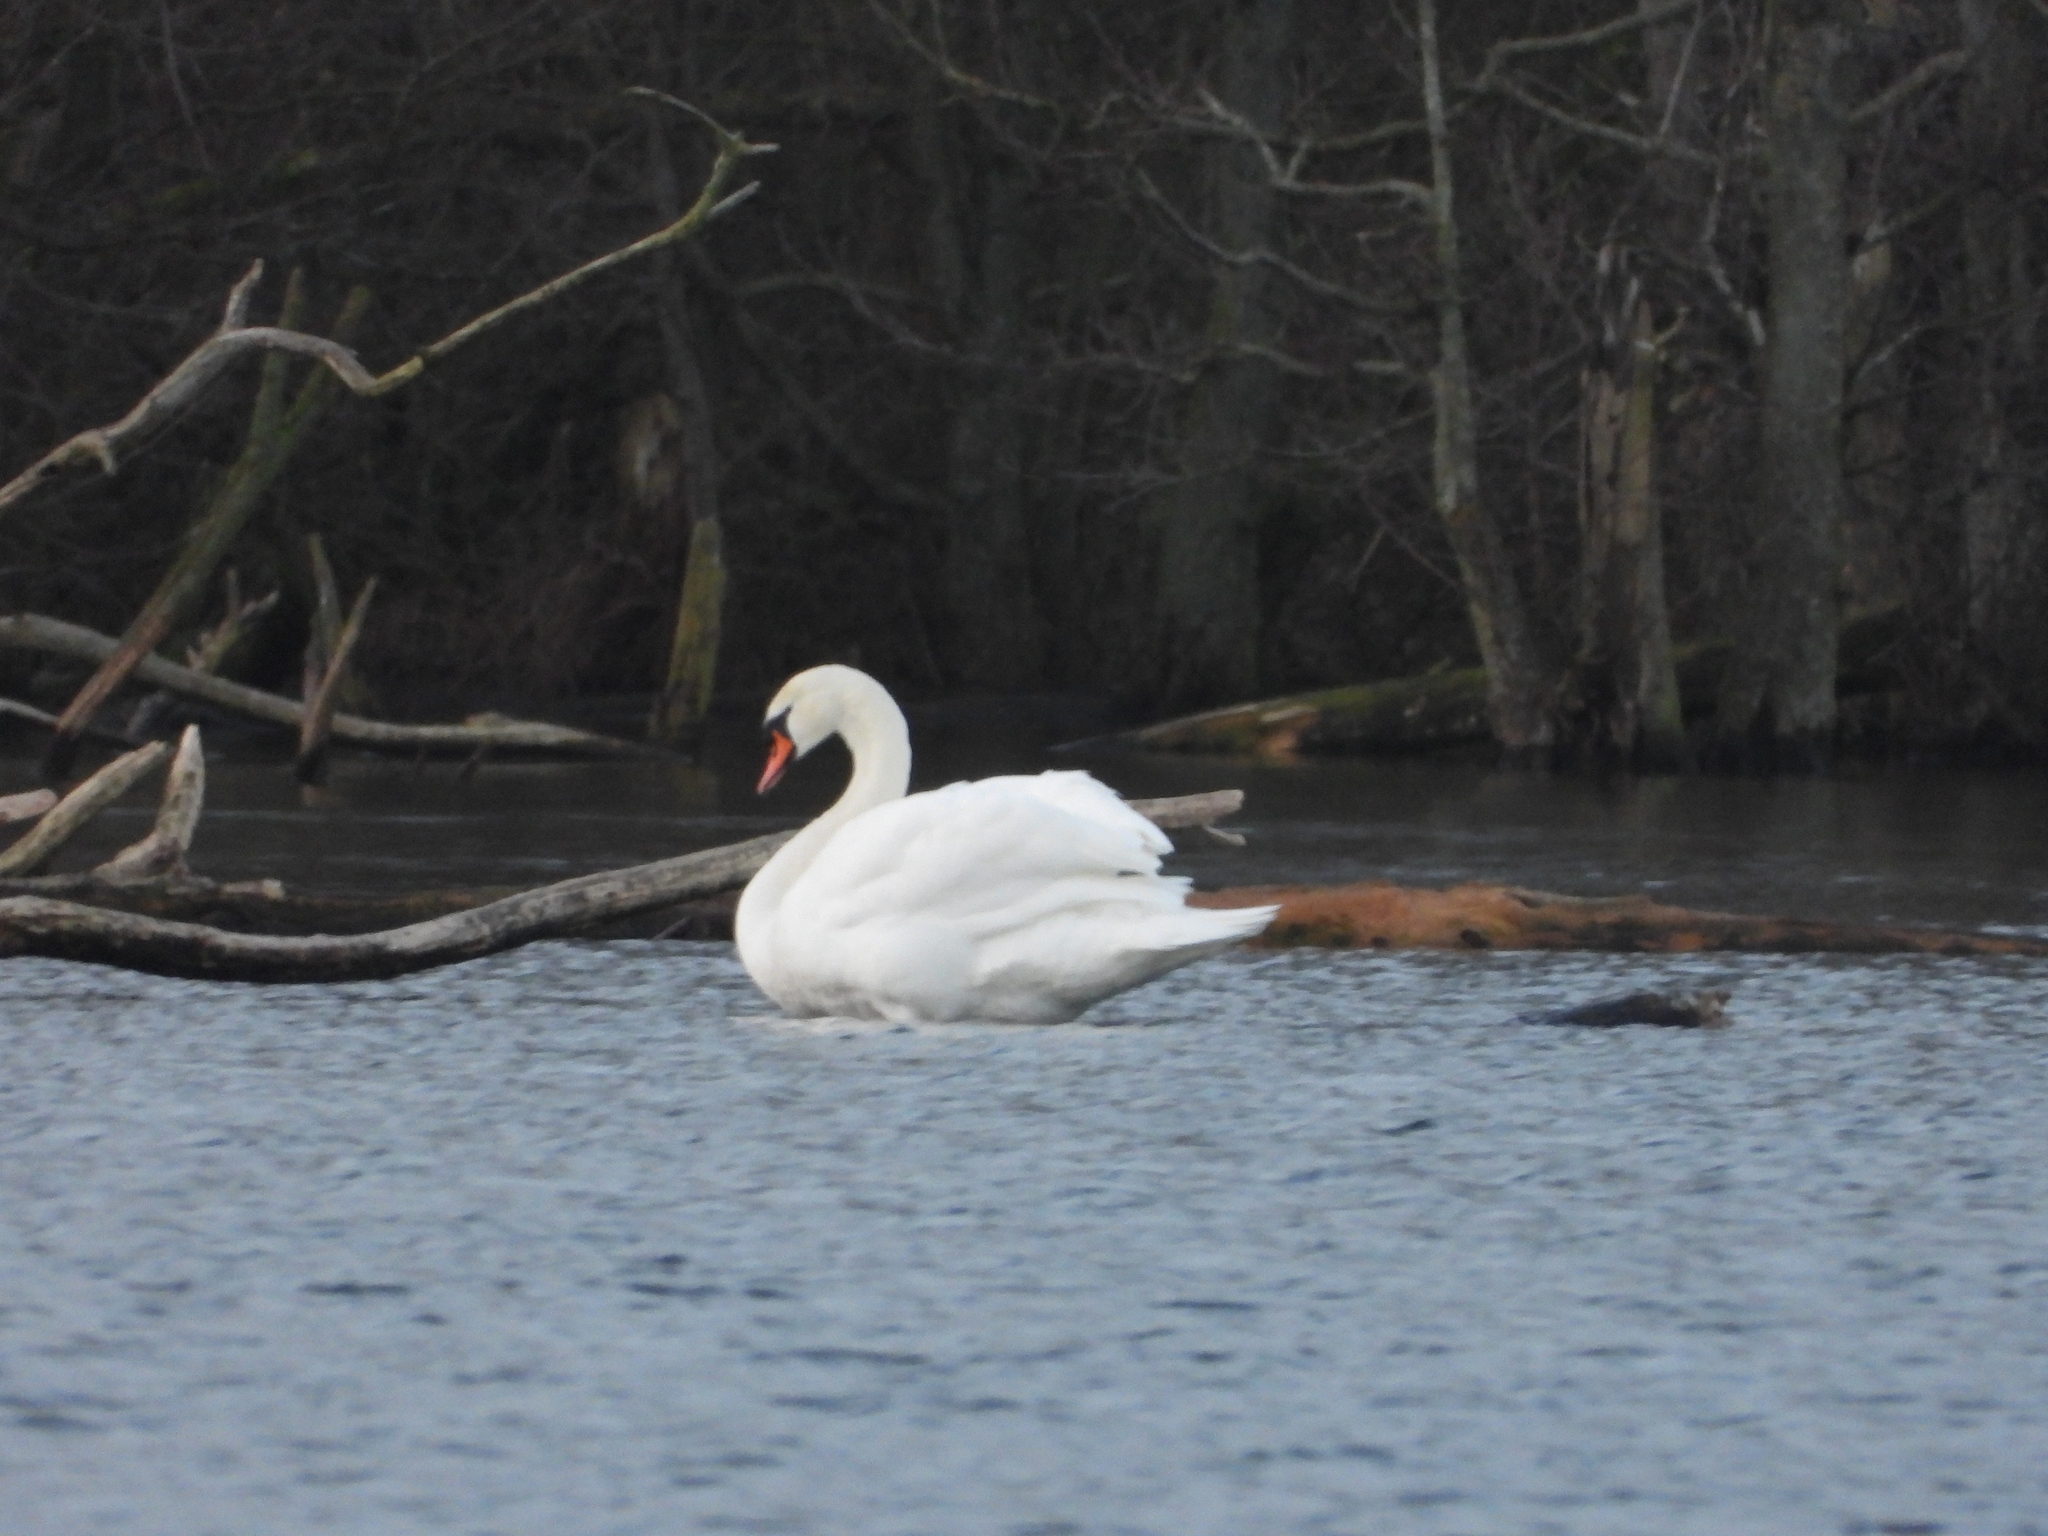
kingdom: Animalia
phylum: Chordata
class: Aves
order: Anseriformes
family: Anatidae
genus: Cygnus
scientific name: Cygnus olor
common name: Mute swan
